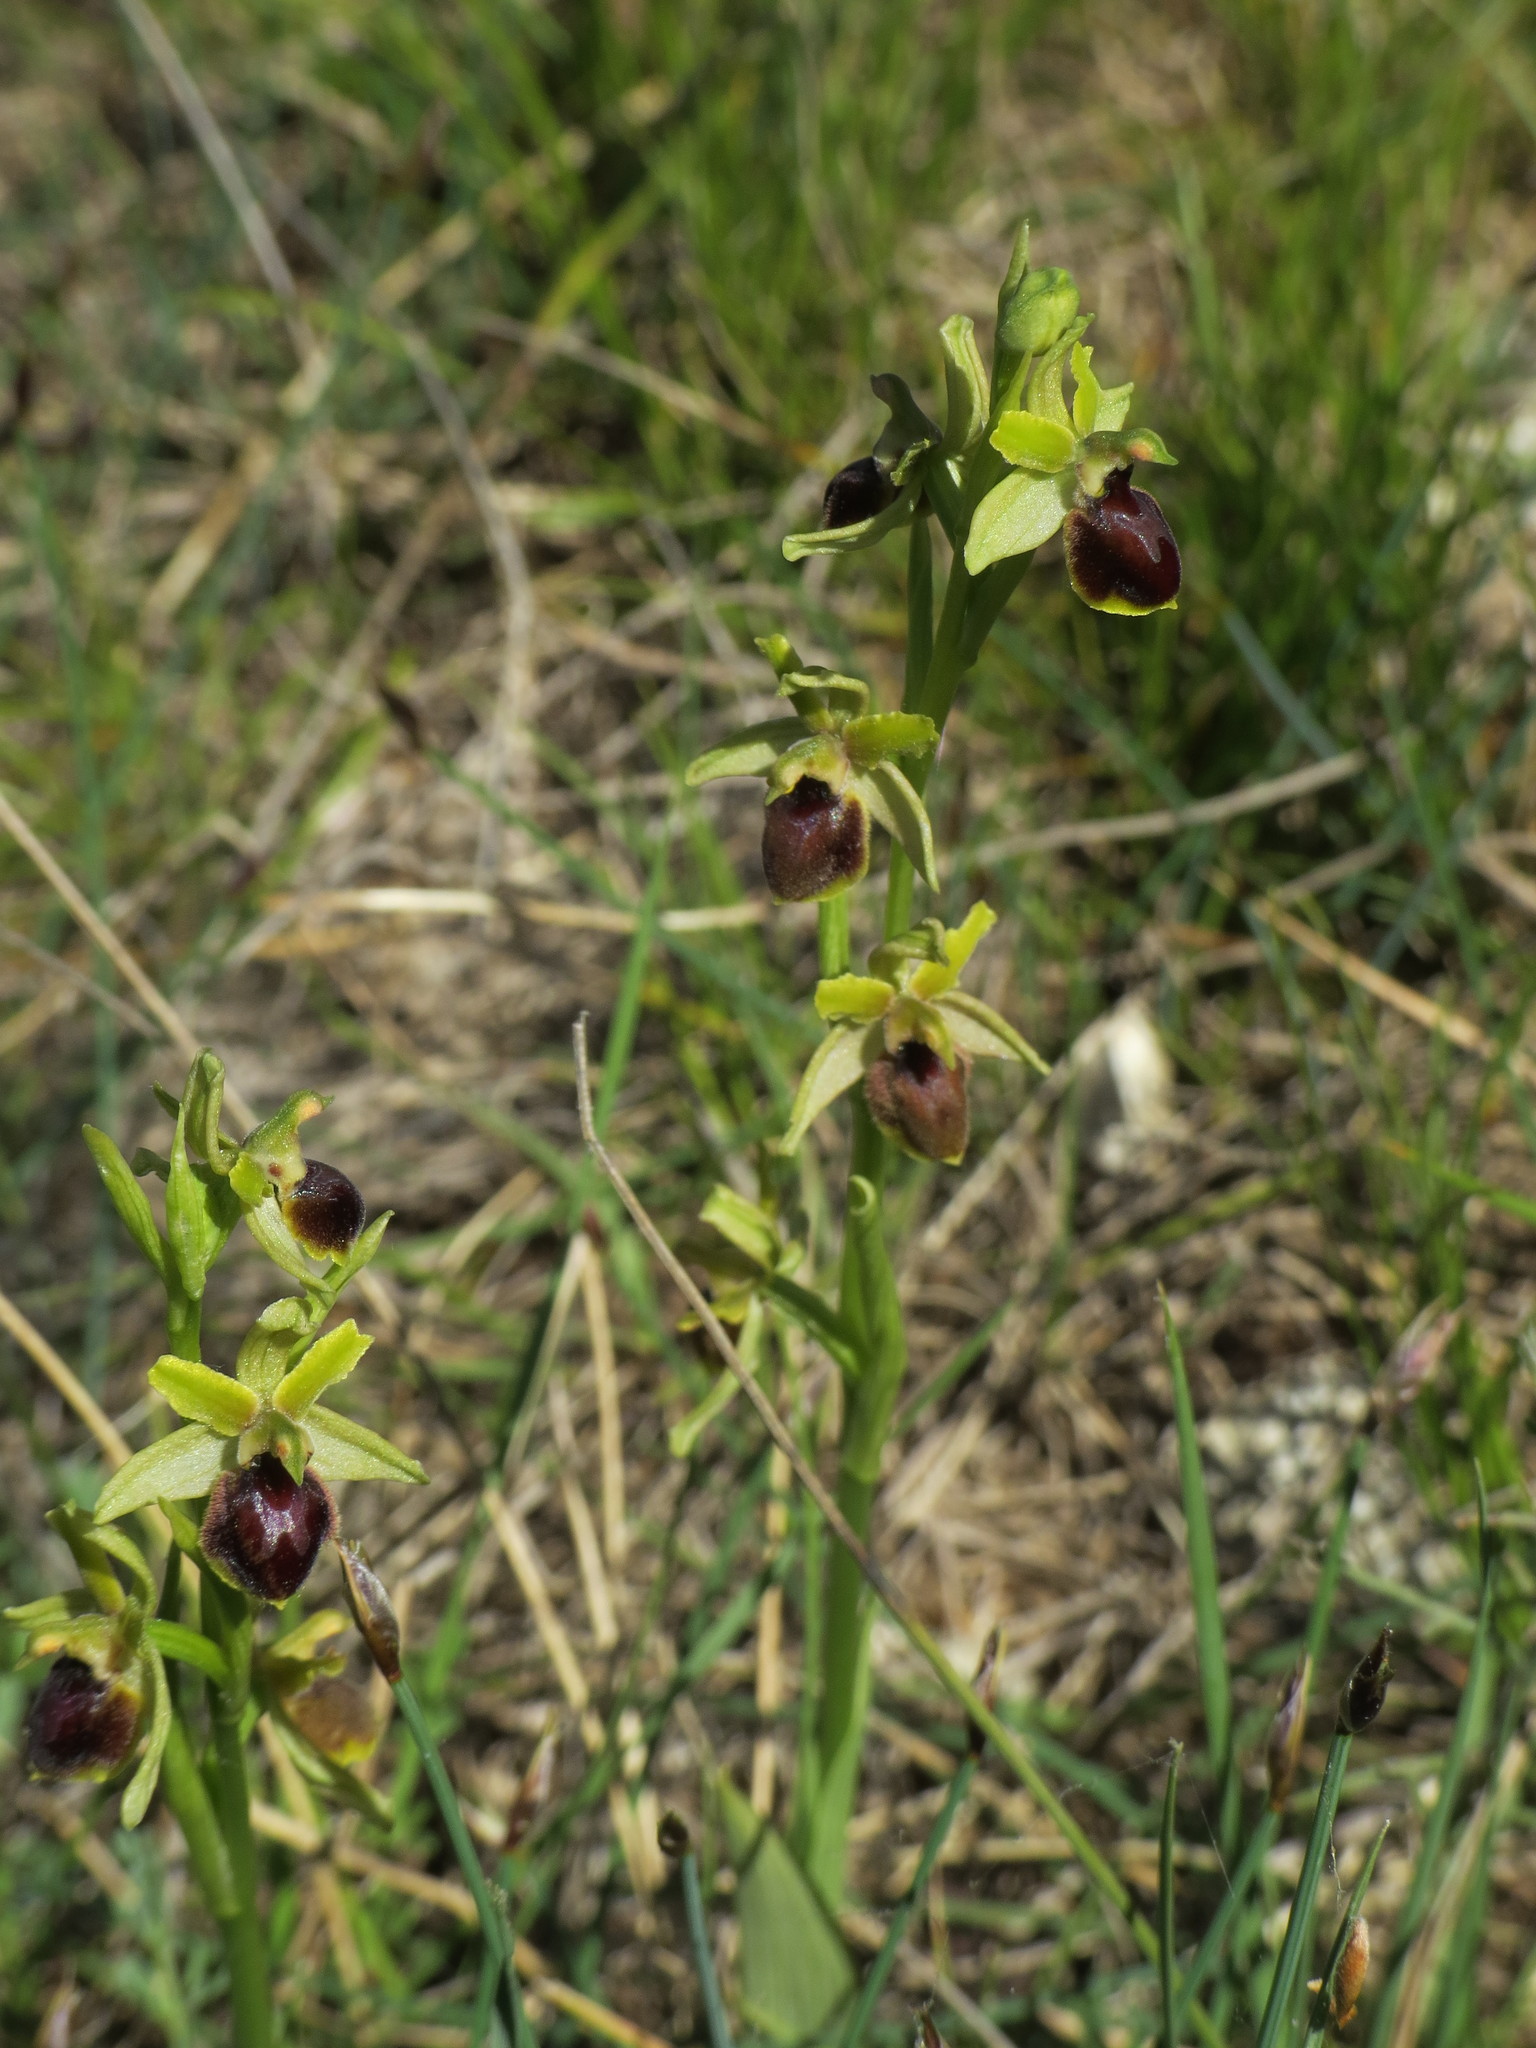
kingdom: Plantae
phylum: Tracheophyta
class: Liliopsida
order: Asparagales
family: Orchidaceae
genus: Ophrys
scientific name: Ophrys sphegodes
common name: Early spider-orchid
